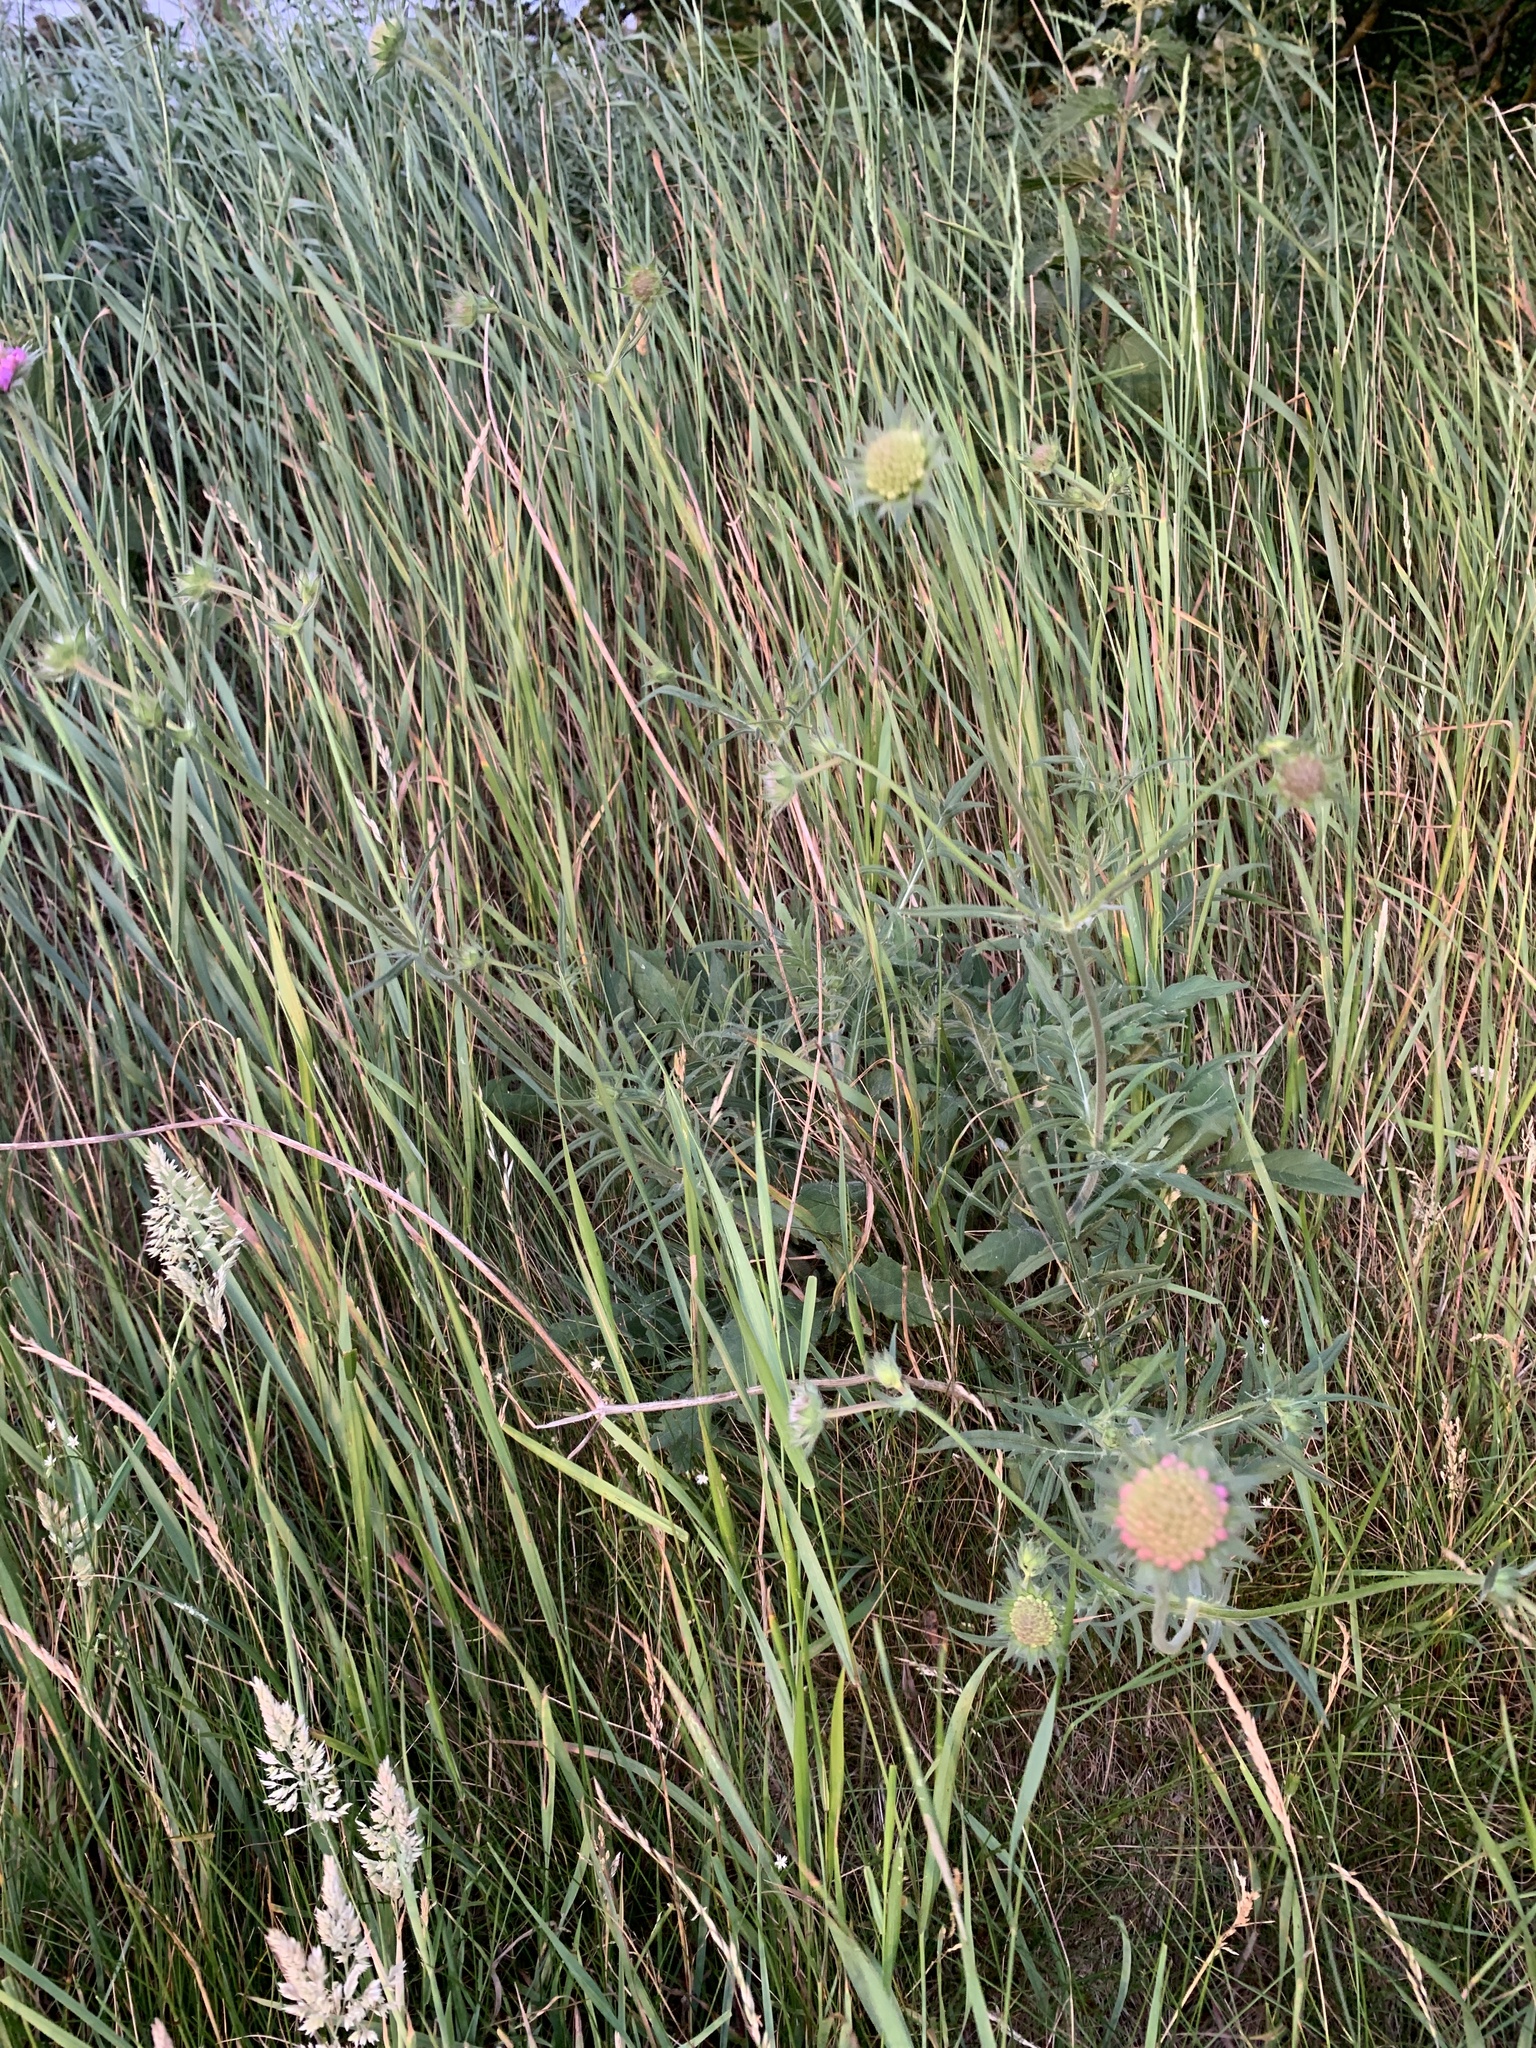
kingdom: Plantae
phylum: Tracheophyta
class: Magnoliopsida
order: Dipsacales
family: Caprifoliaceae
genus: Knautia
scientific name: Knautia arvensis
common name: Field scabiosa
